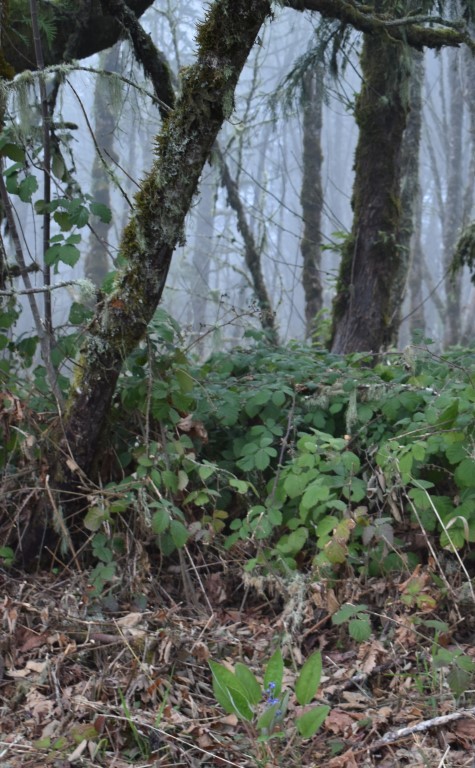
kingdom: Plantae
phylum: Tracheophyta
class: Magnoliopsida
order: Boraginales
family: Boraginaceae
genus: Adelinia
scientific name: Adelinia grande
